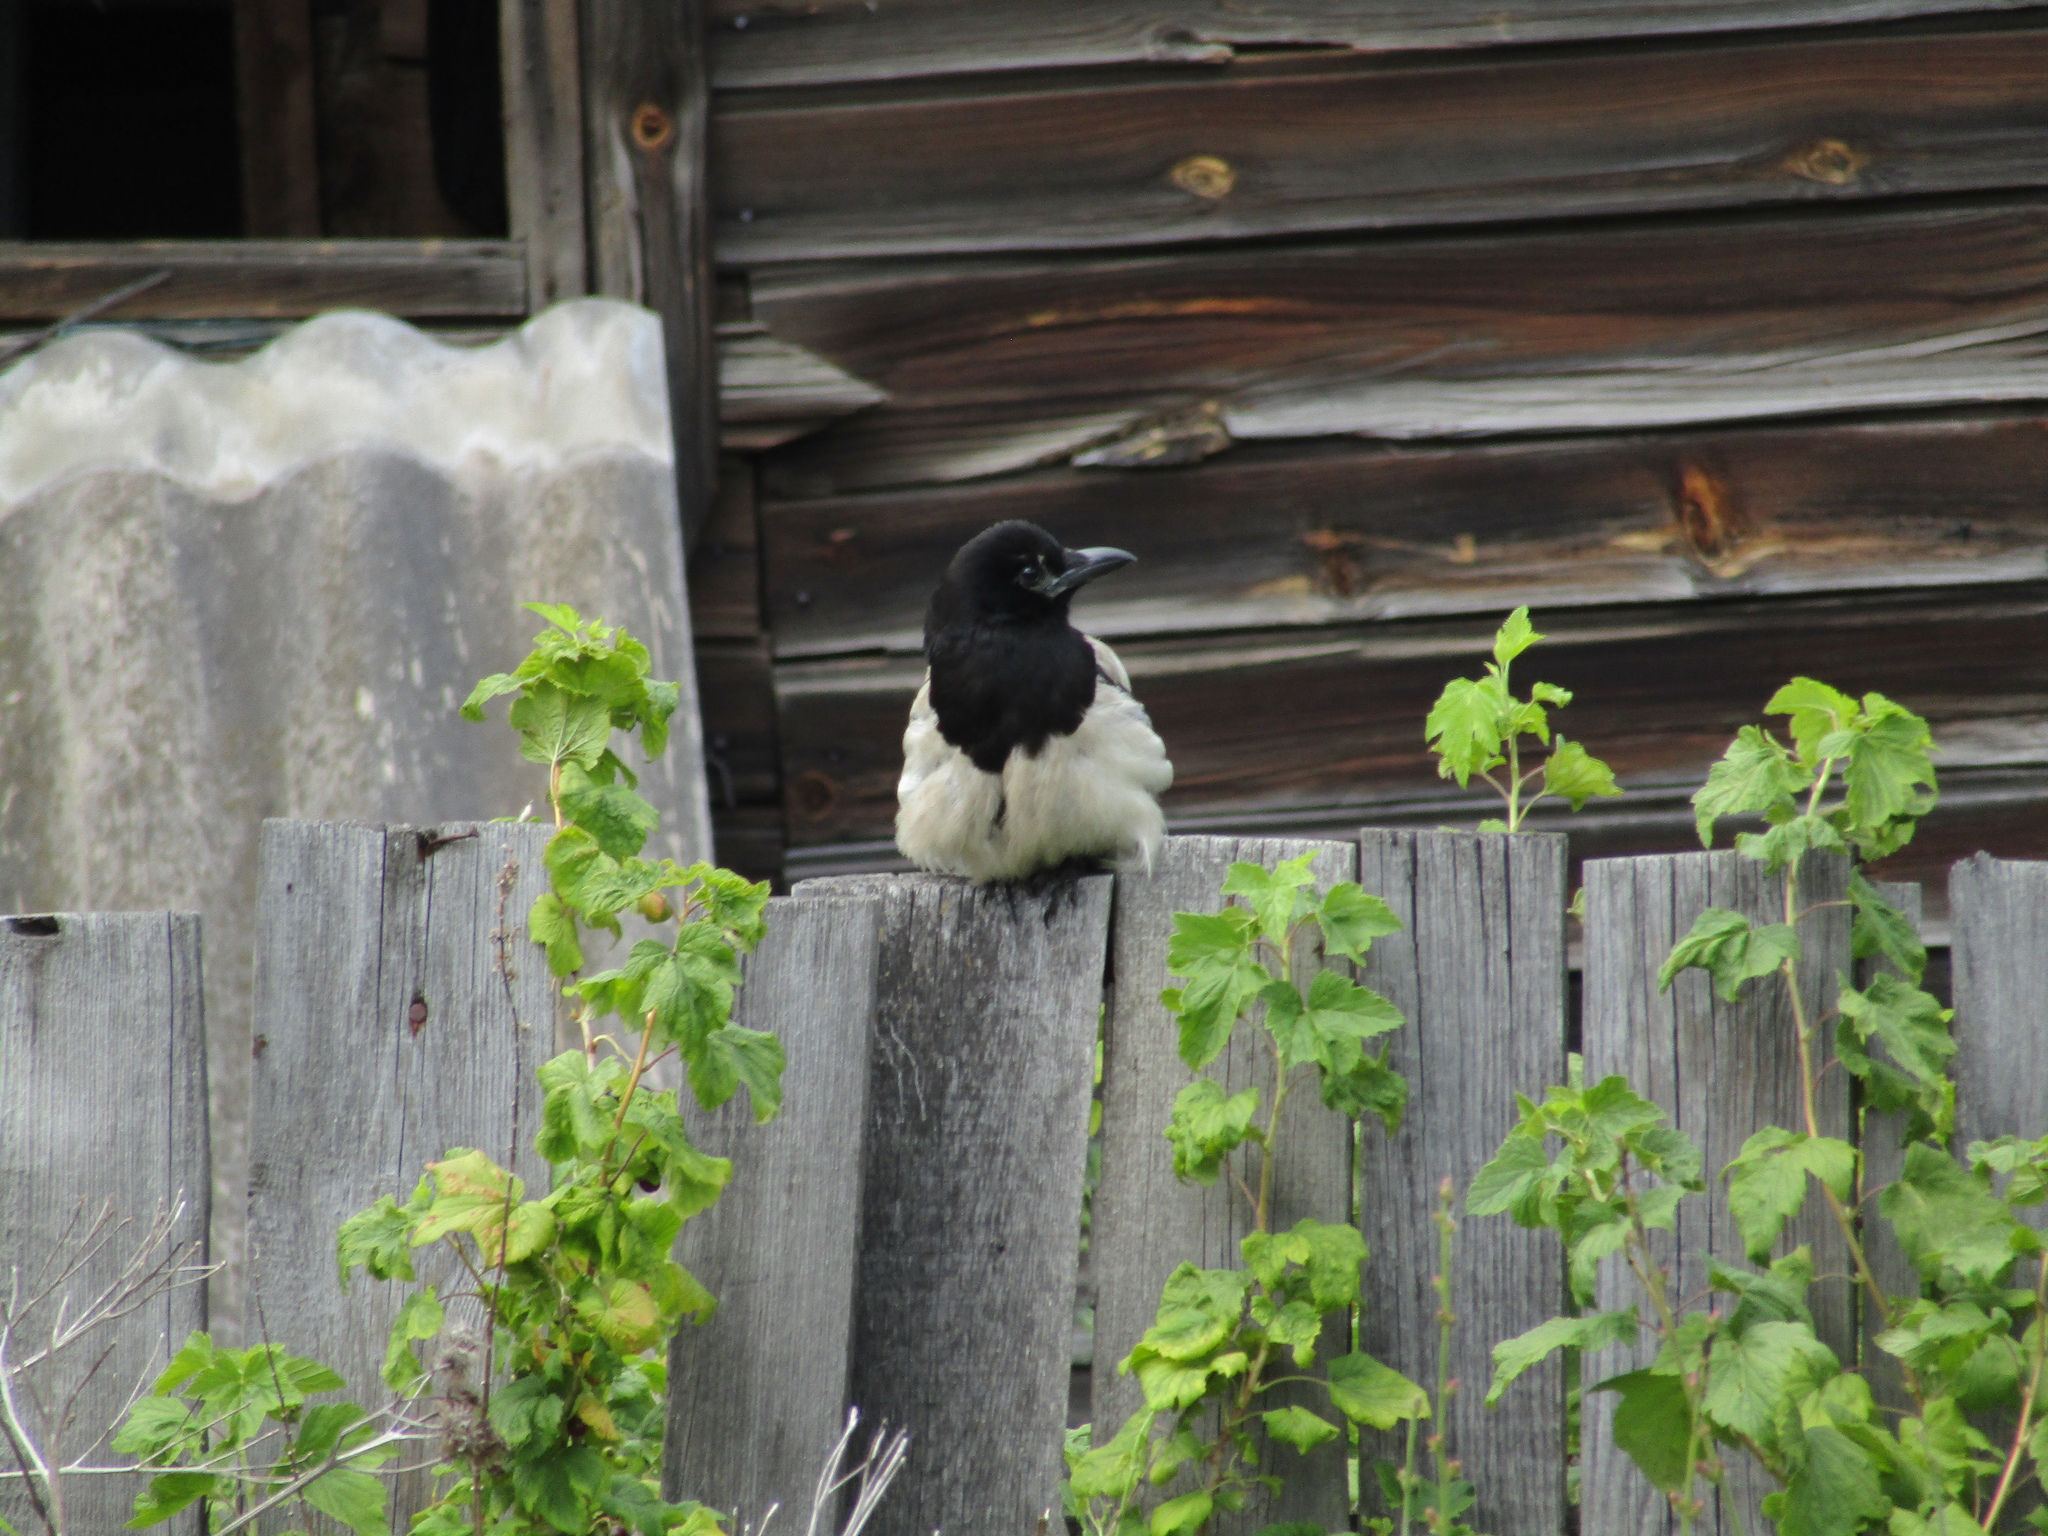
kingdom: Animalia
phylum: Chordata
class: Aves
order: Passeriformes
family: Corvidae
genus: Pica
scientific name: Pica pica
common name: Eurasian magpie
